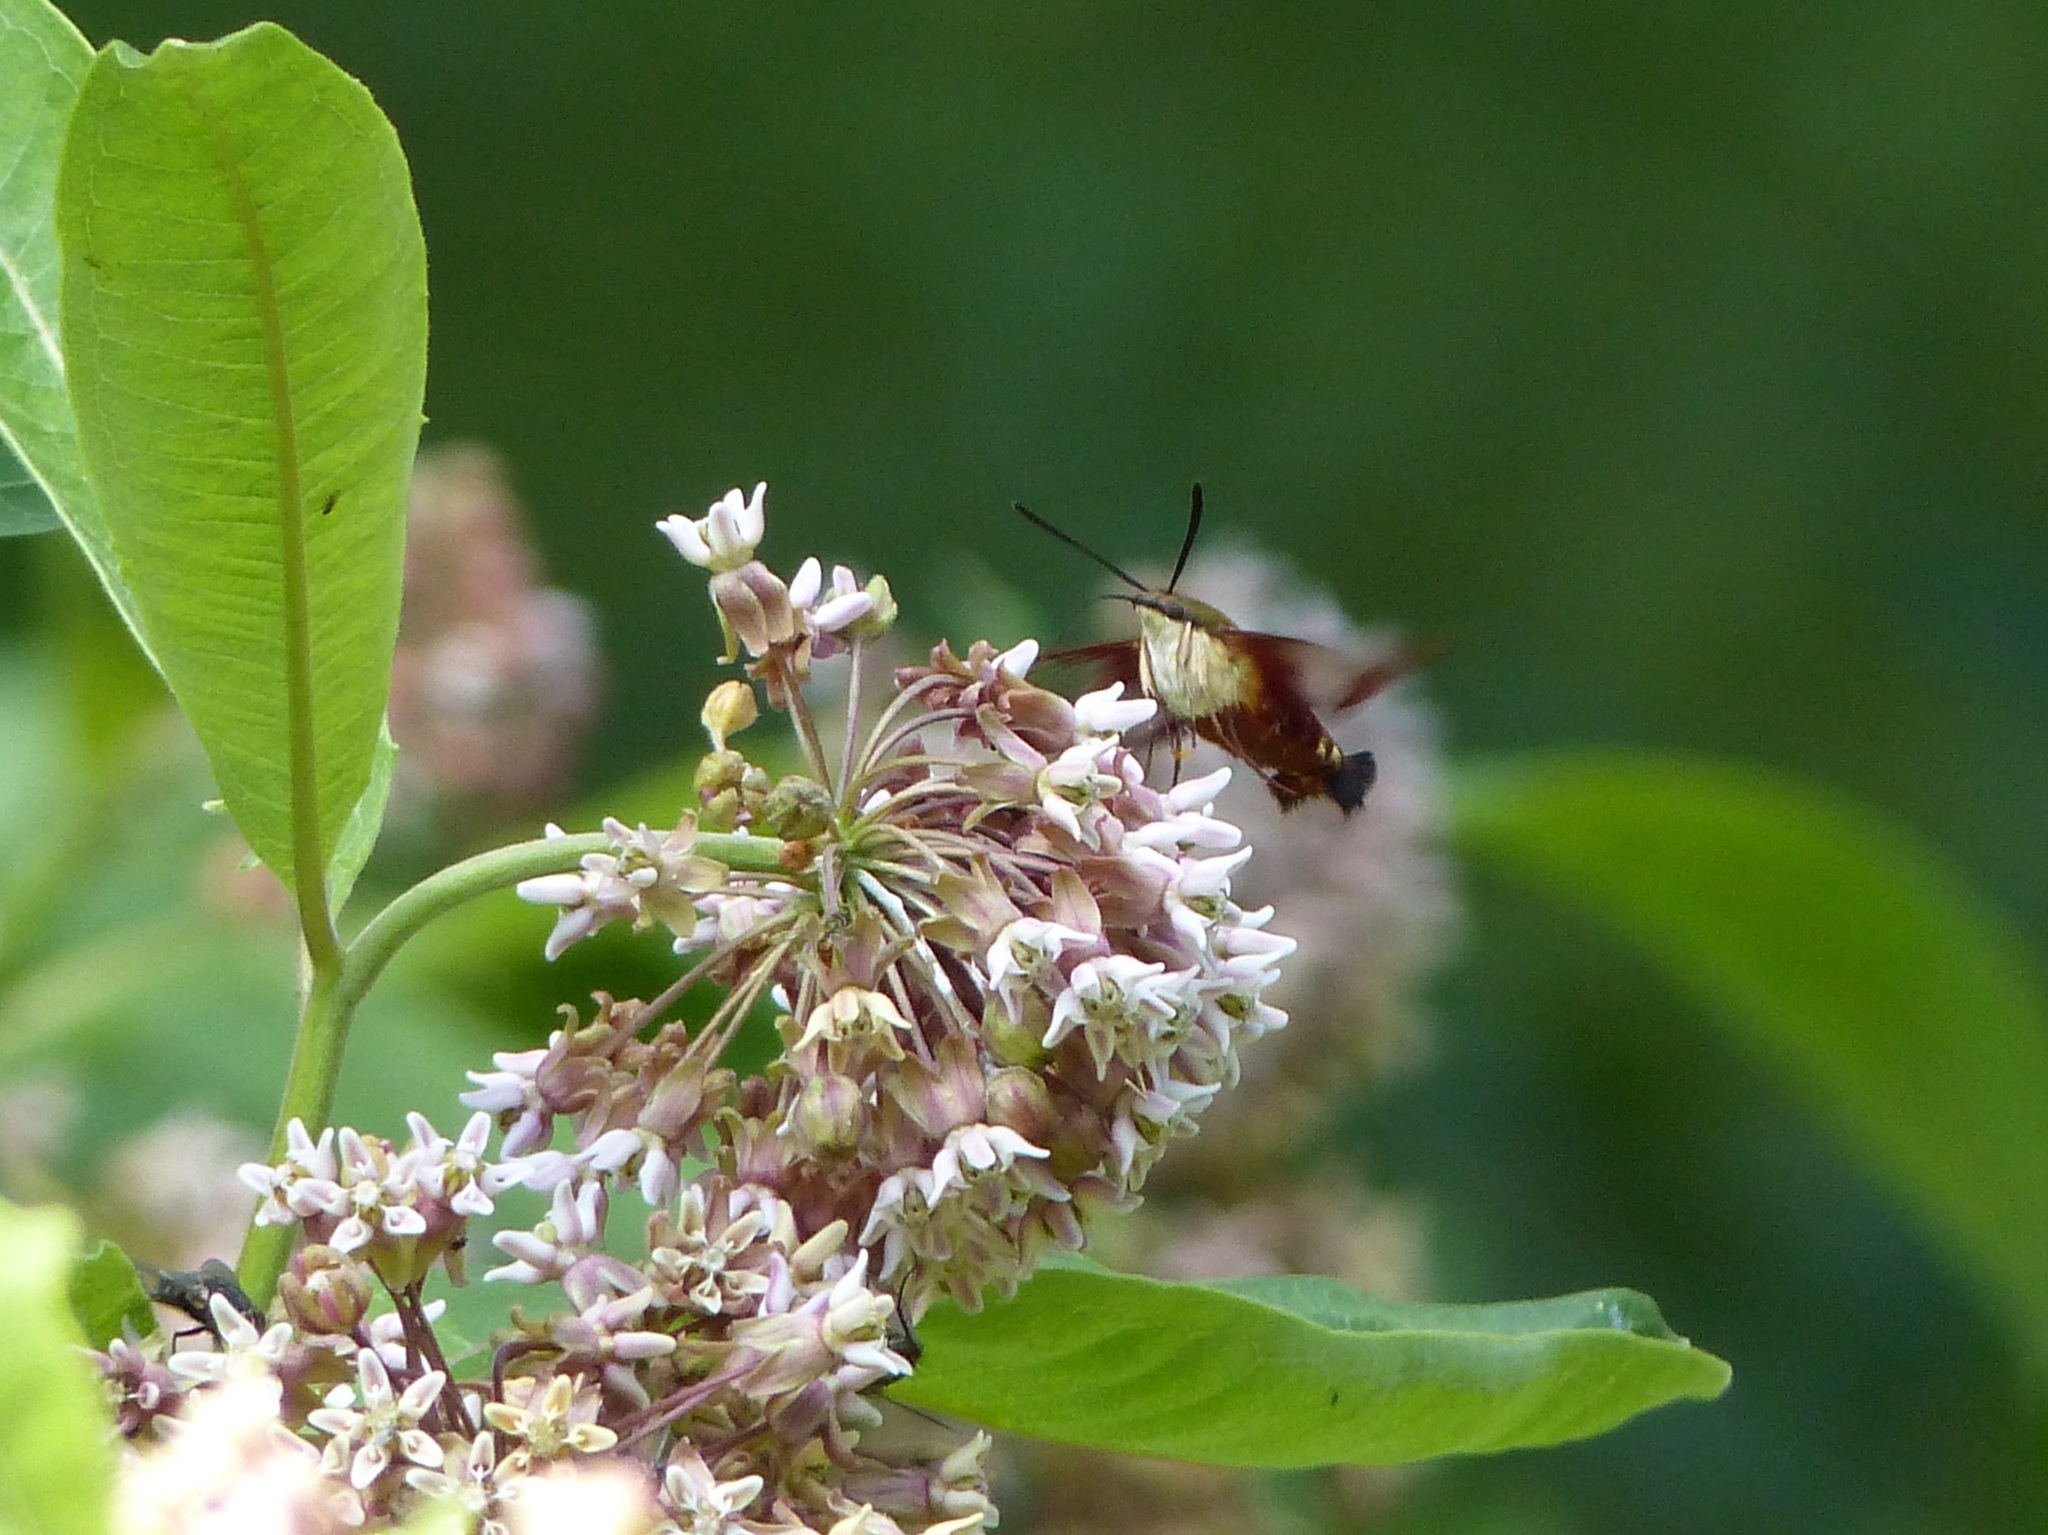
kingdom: Animalia
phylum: Arthropoda
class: Insecta
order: Lepidoptera
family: Sphingidae
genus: Hemaris
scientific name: Hemaris thysbe
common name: Common clear-wing
